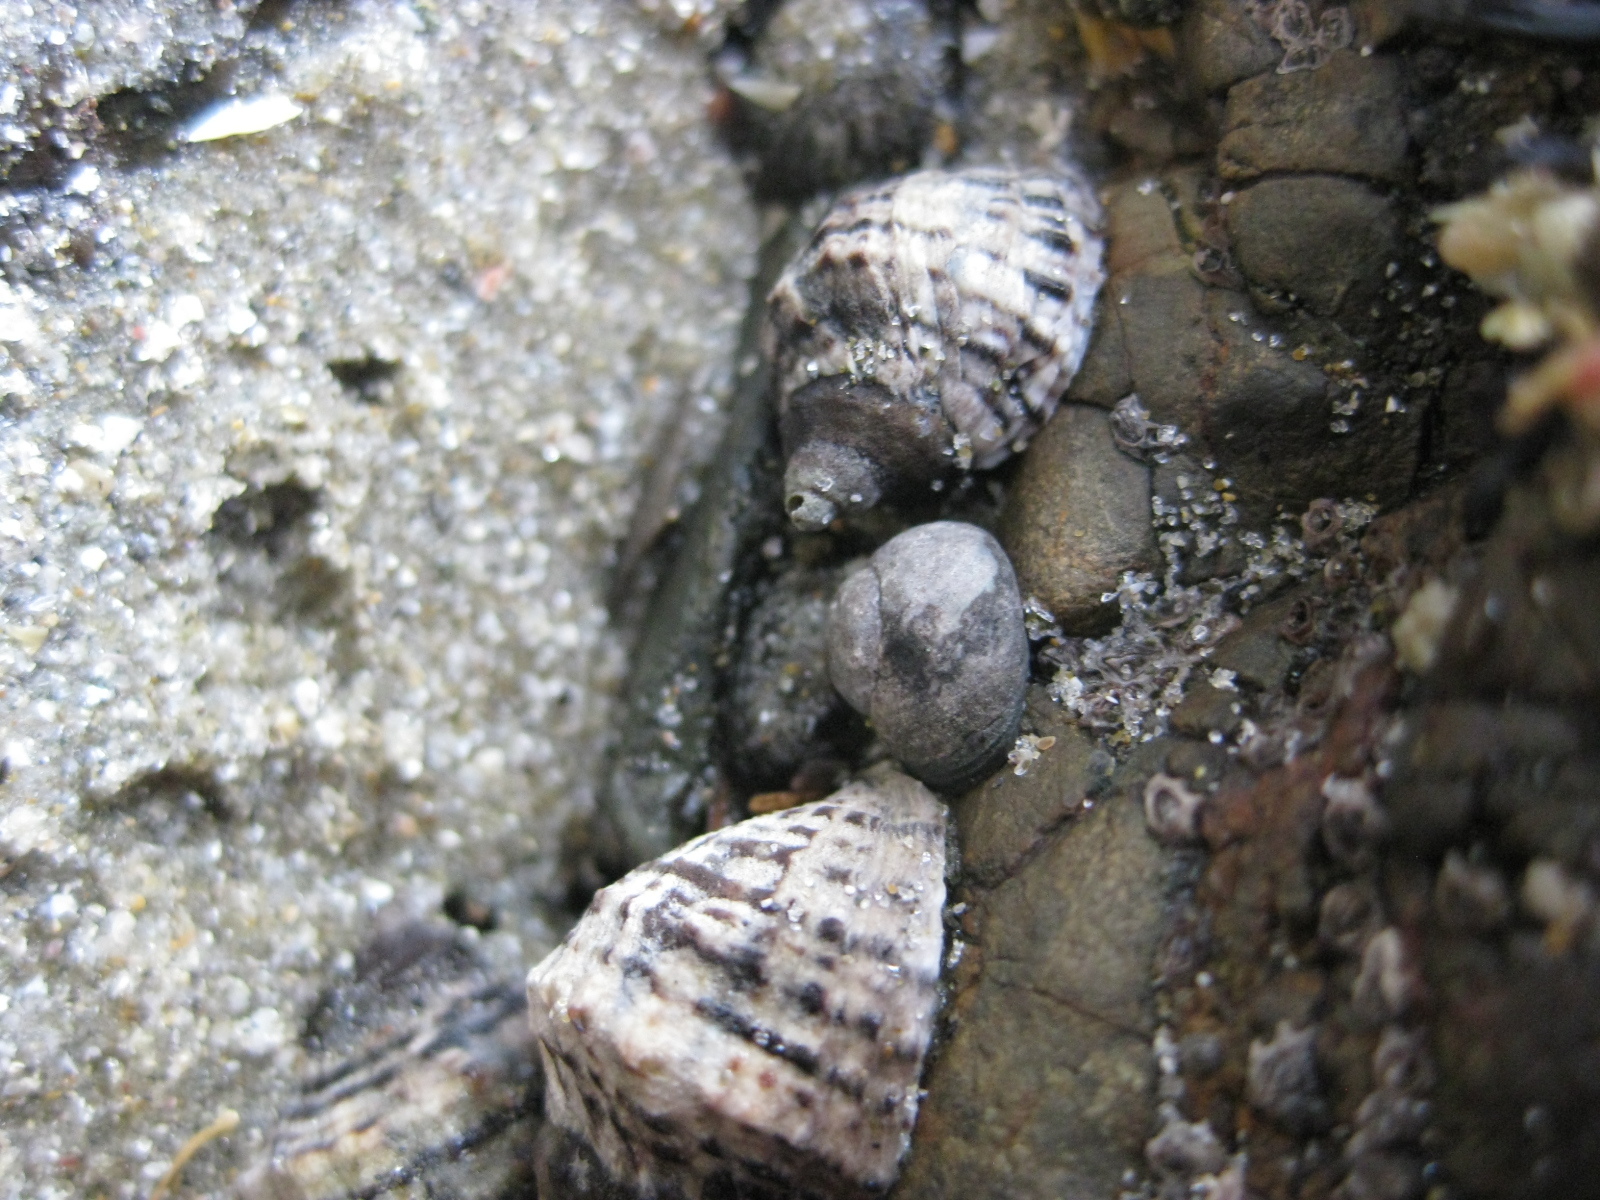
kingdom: Animalia
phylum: Mollusca
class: Gastropoda
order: Neogastropoda
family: Muricidae
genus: Haustrum
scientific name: Haustrum scobina
